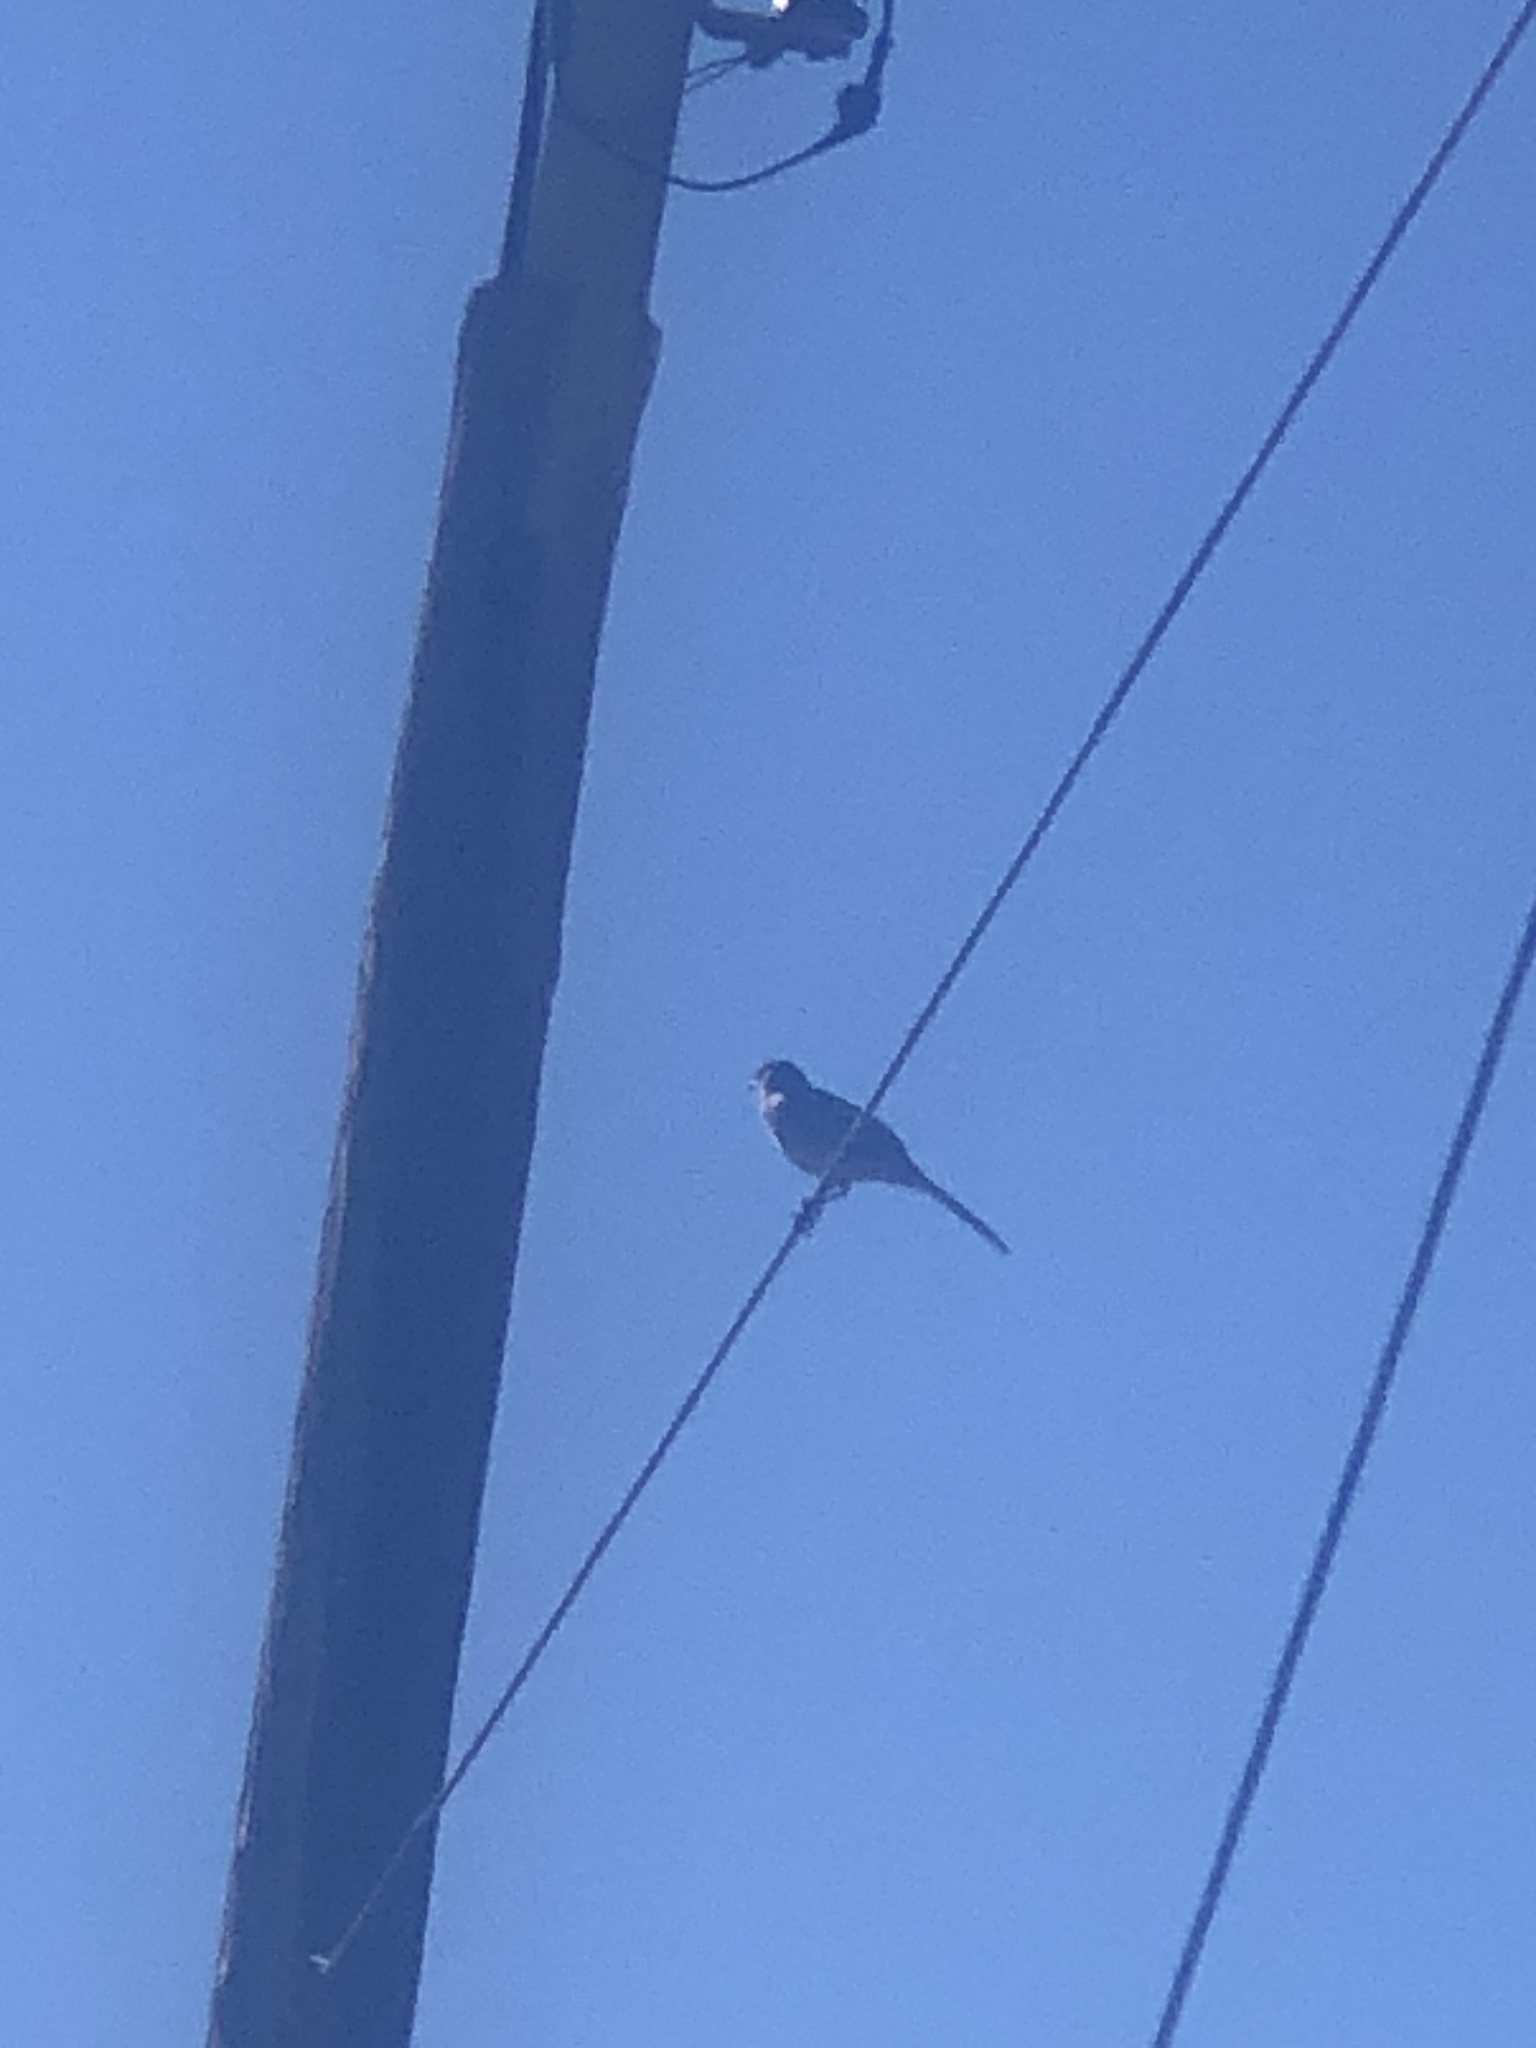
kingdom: Animalia
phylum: Chordata
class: Aves
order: Passeriformes
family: Mimidae
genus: Mimus
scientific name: Mimus polyglottos
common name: Northern mockingbird
